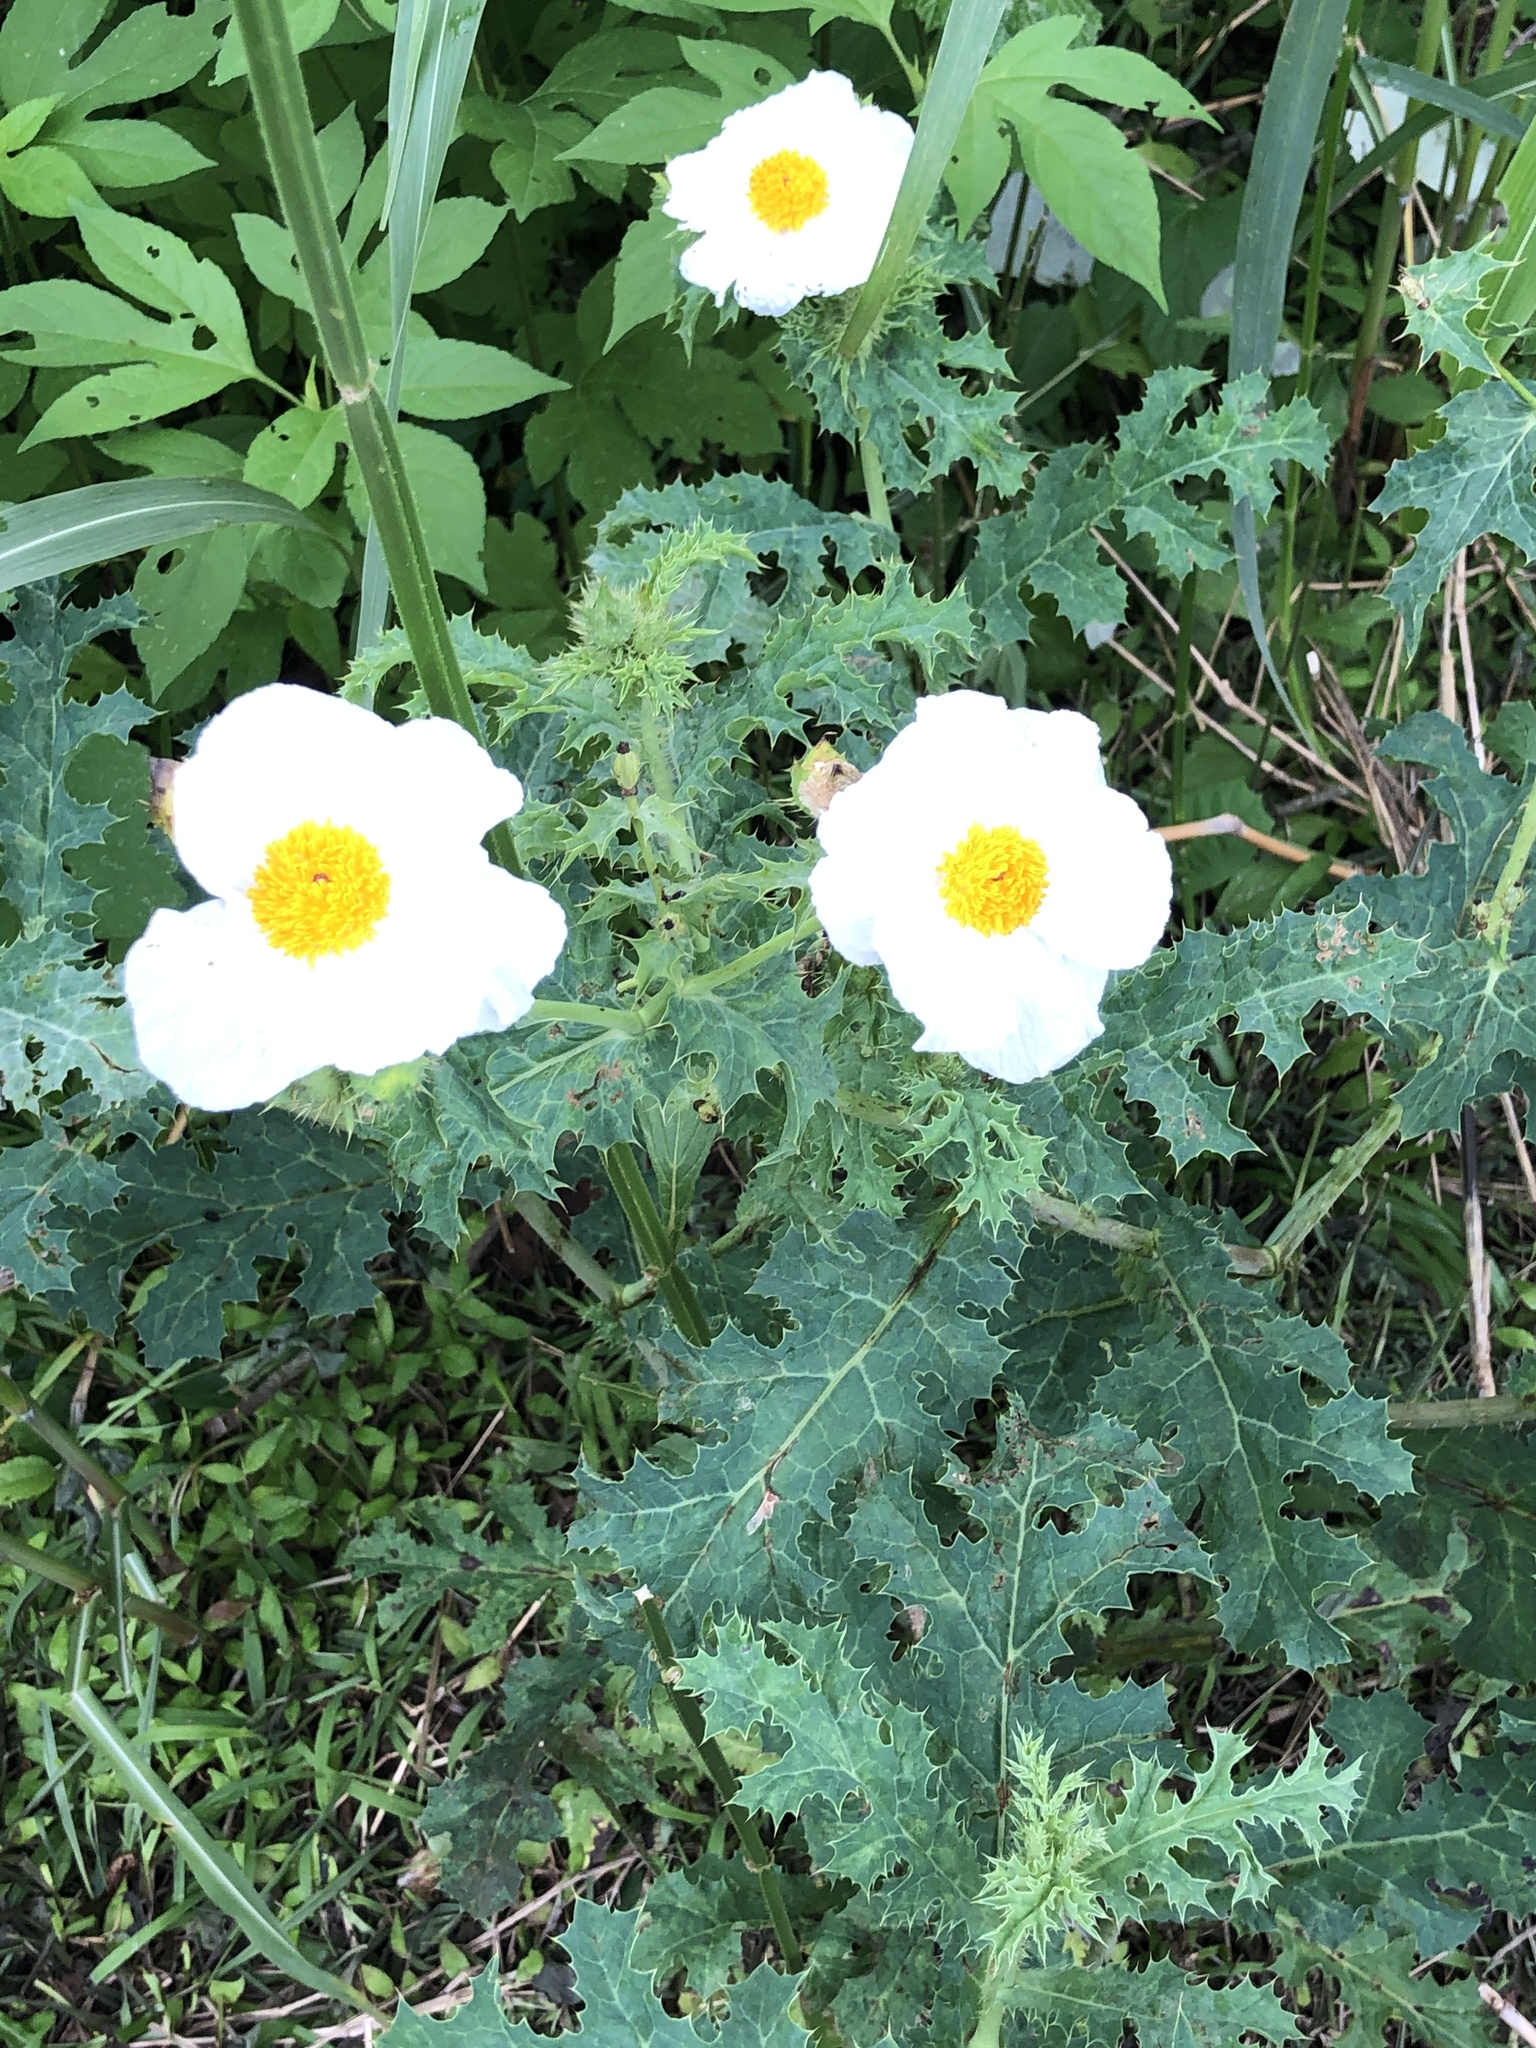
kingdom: Plantae
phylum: Tracheophyta
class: Magnoliopsida
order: Ranunculales
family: Papaveraceae
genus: Argemone
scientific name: Argemone albiflora
